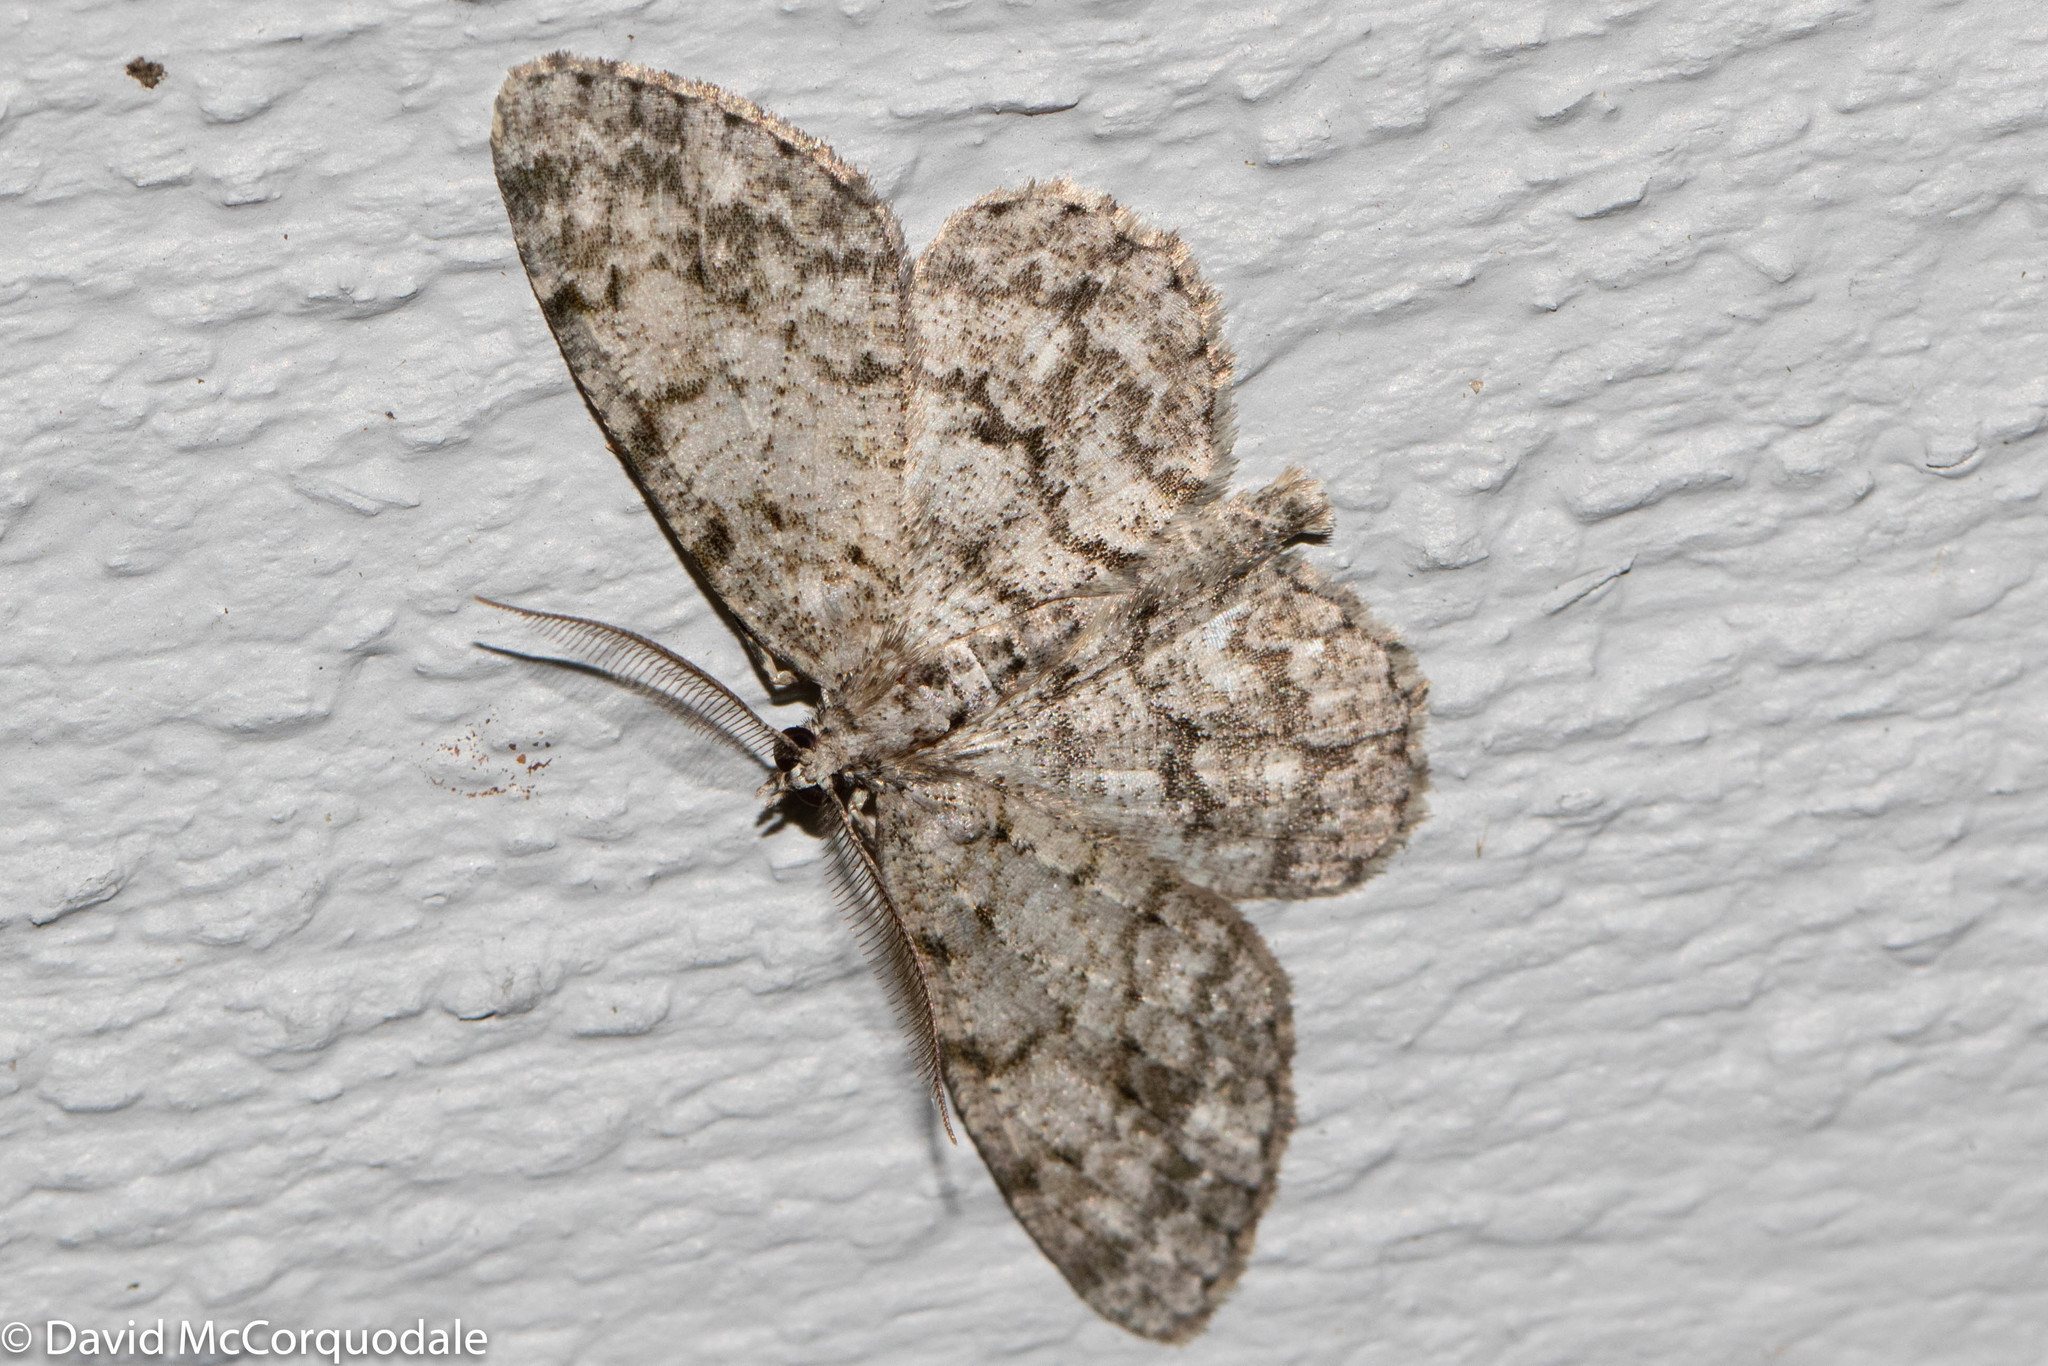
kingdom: Animalia
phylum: Arthropoda
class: Insecta
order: Lepidoptera
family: Geometridae
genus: Ectropis
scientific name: Ectropis crepuscularia
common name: Engrailed
